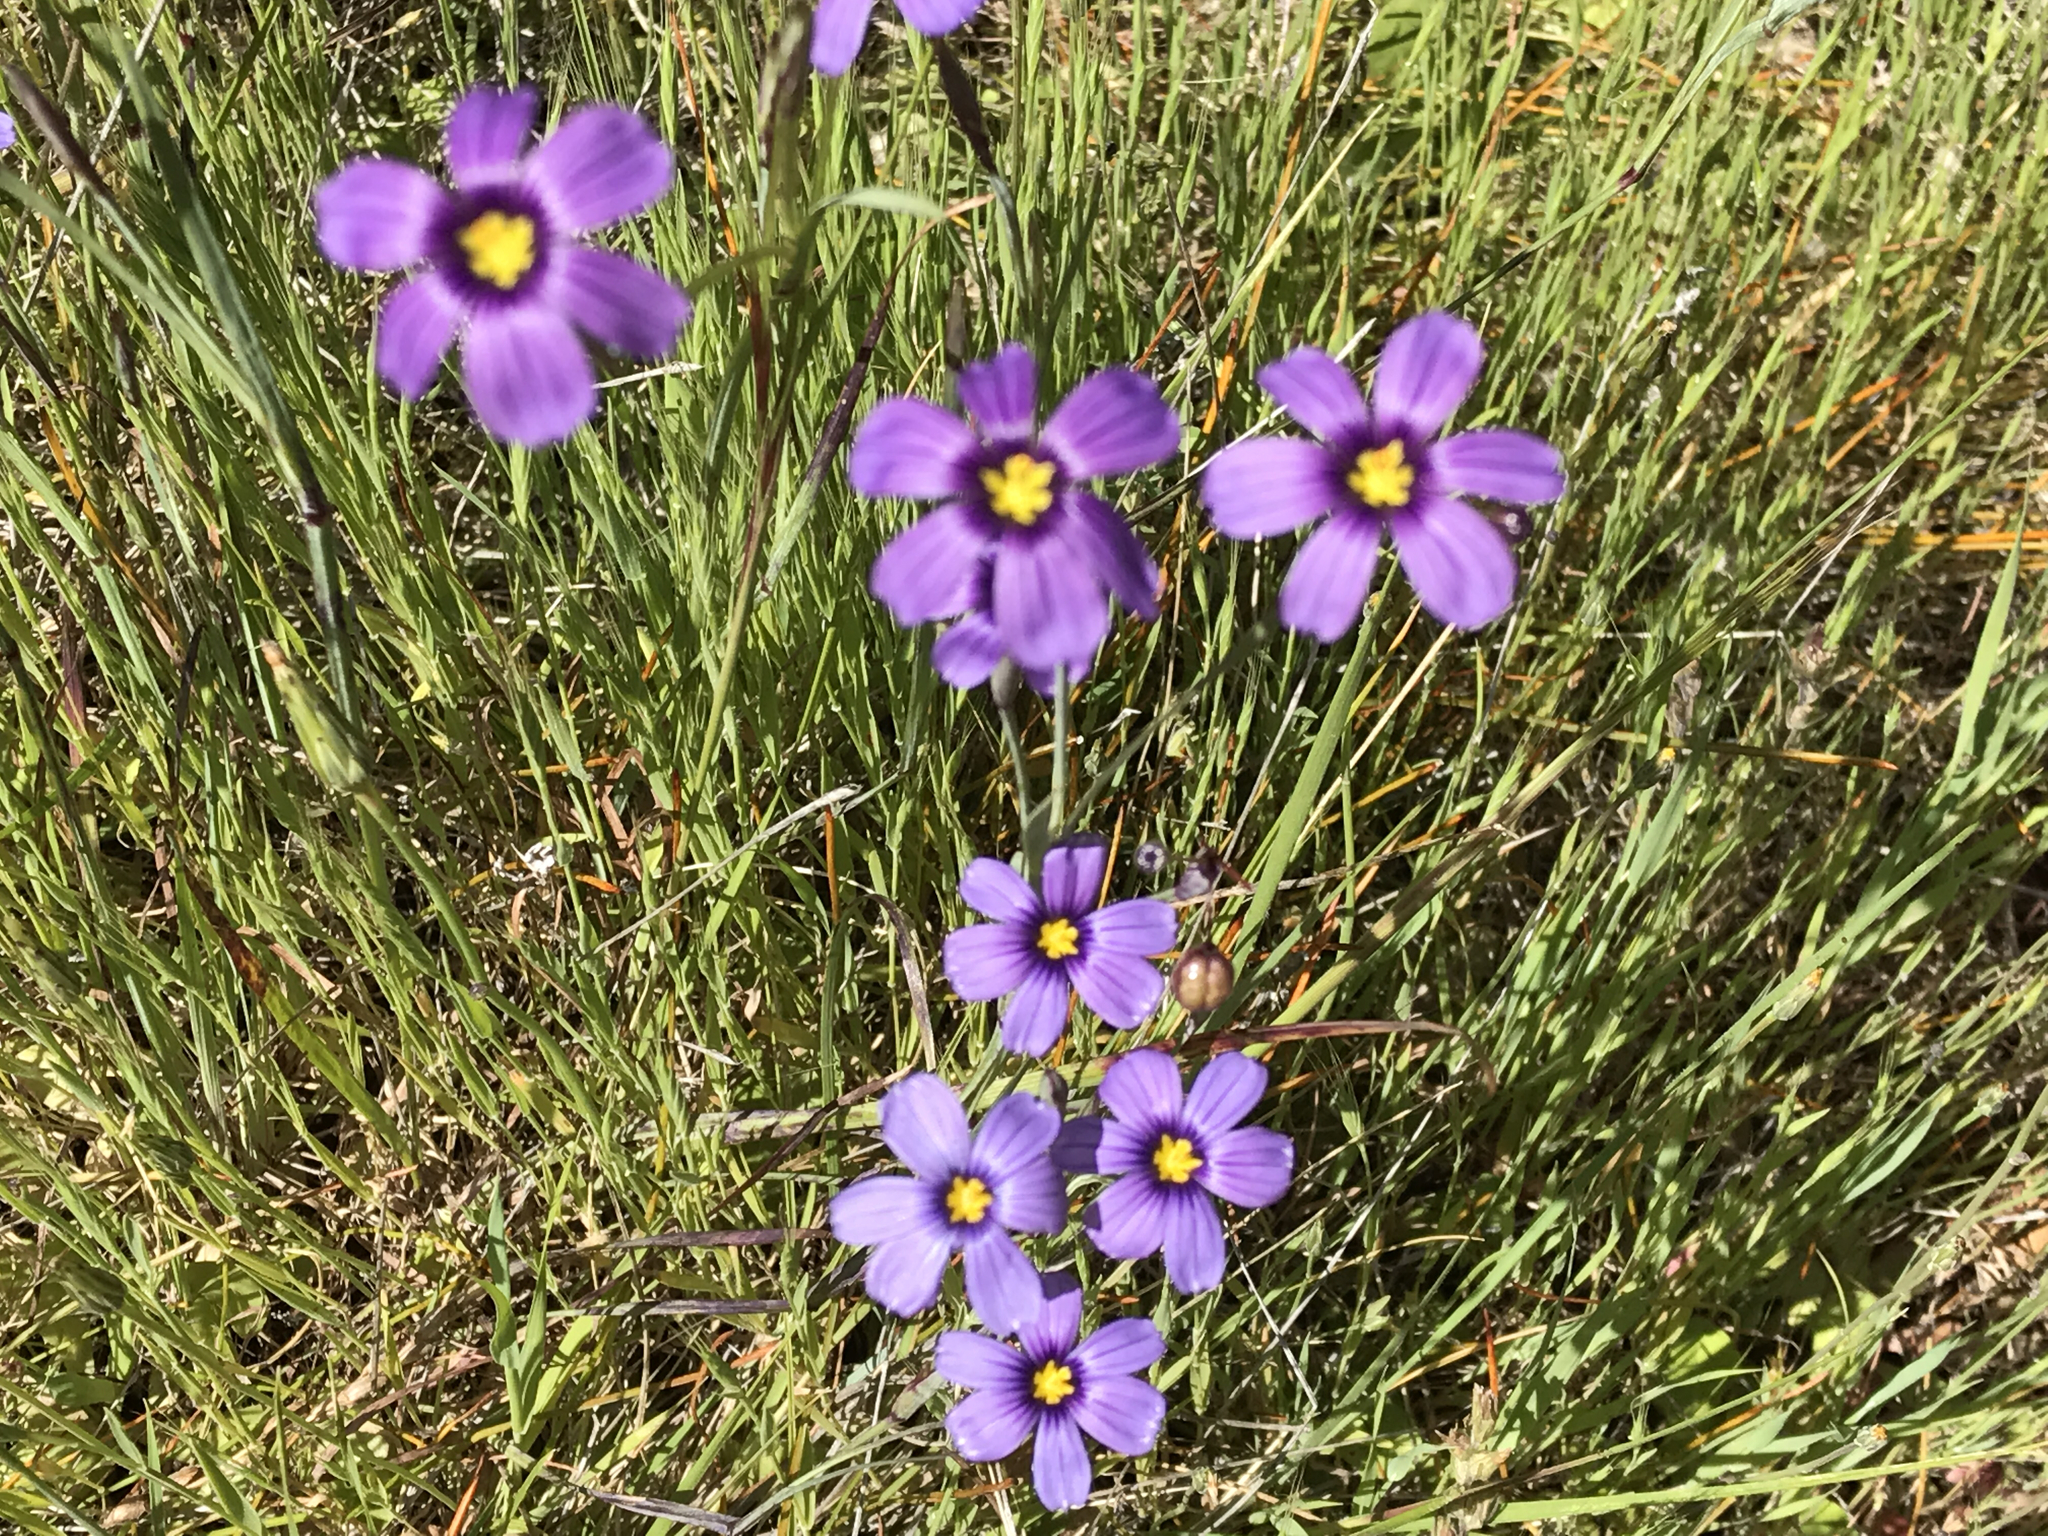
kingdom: Plantae
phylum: Tracheophyta
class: Liliopsida
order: Asparagales
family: Iridaceae
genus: Sisyrinchium
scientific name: Sisyrinchium bellum
